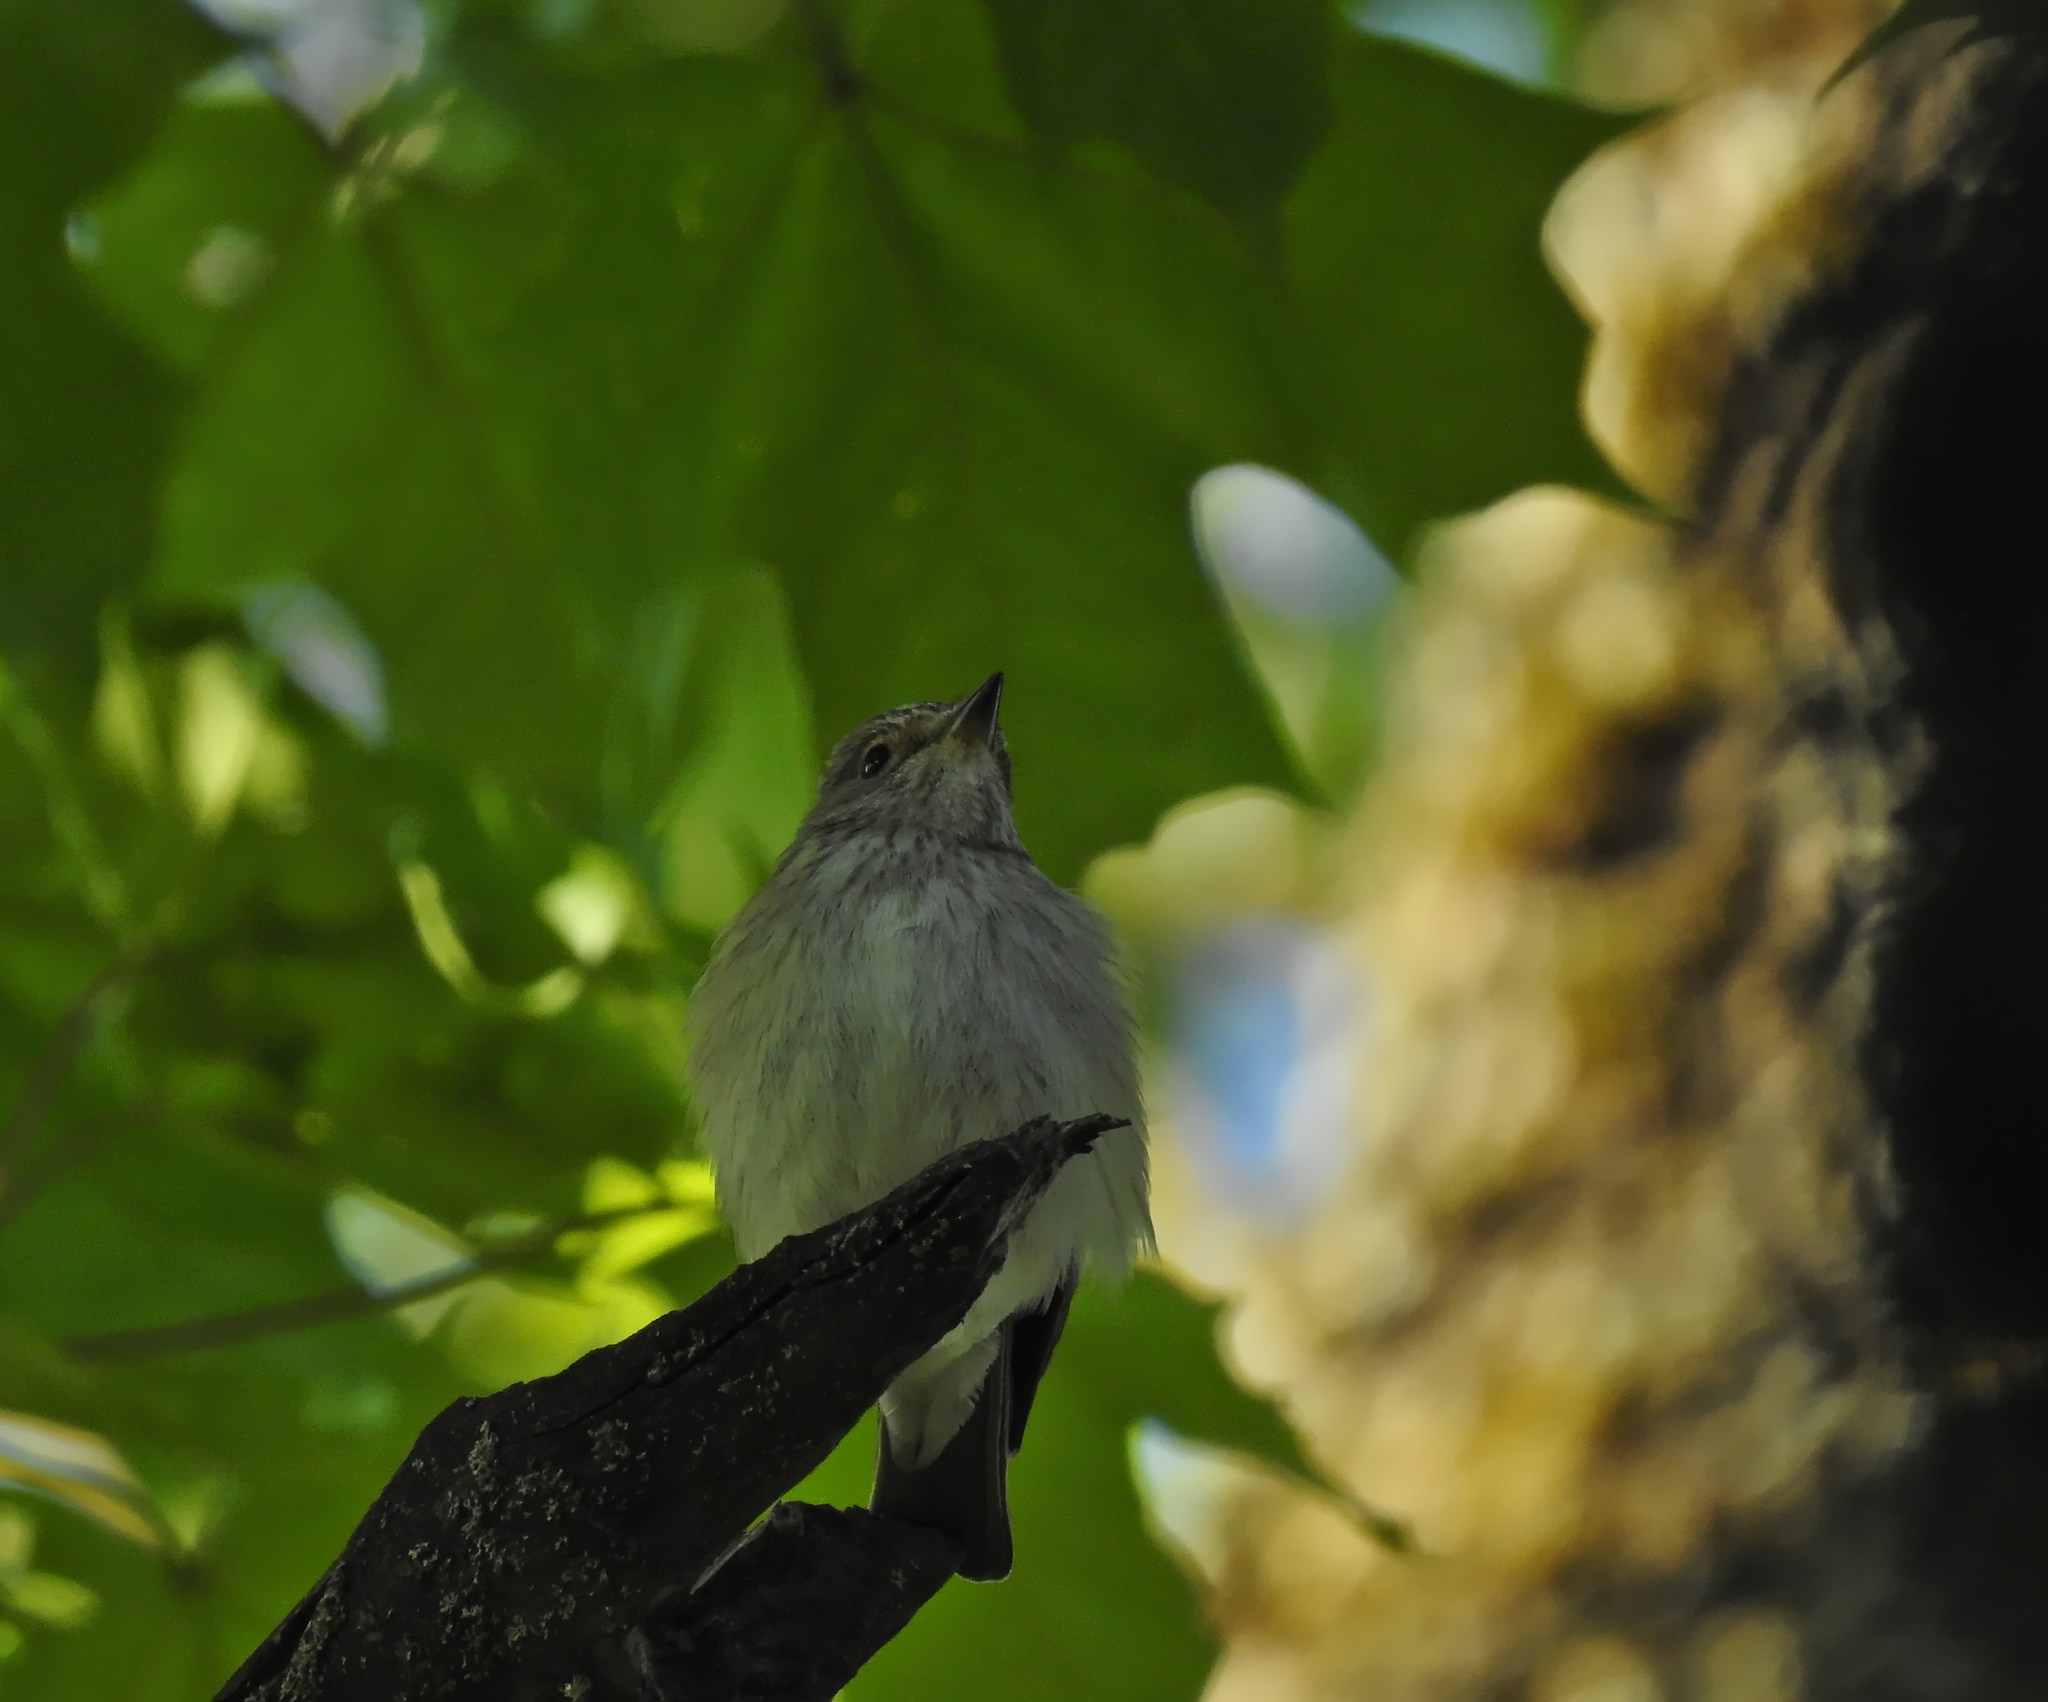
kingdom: Animalia
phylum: Chordata
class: Aves
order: Passeriformes
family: Muscicapidae
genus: Muscicapa
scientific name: Muscicapa striata
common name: Spotted flycatcher
